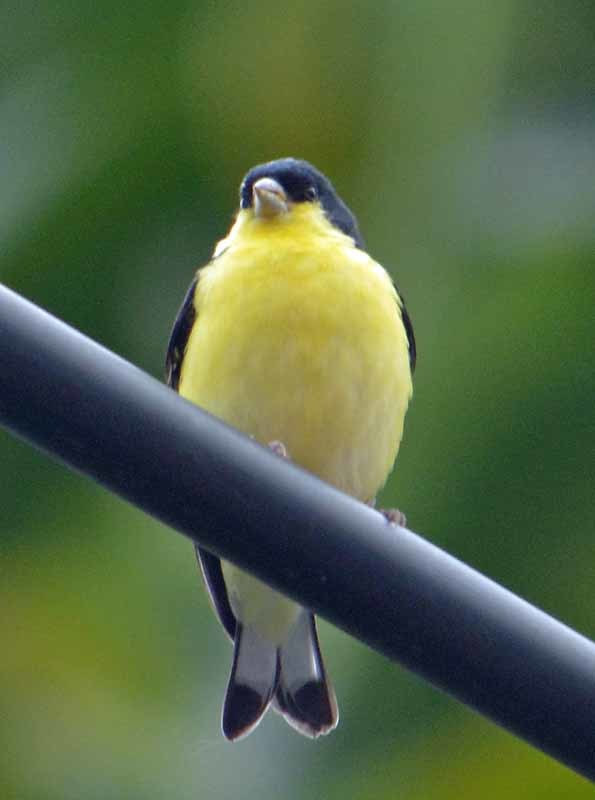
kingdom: Animalia
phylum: Chordata
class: Aves
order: Passeriformes
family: Fringillidae
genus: Spinus
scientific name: Spinus psaltria
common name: Lesser goldfinch
